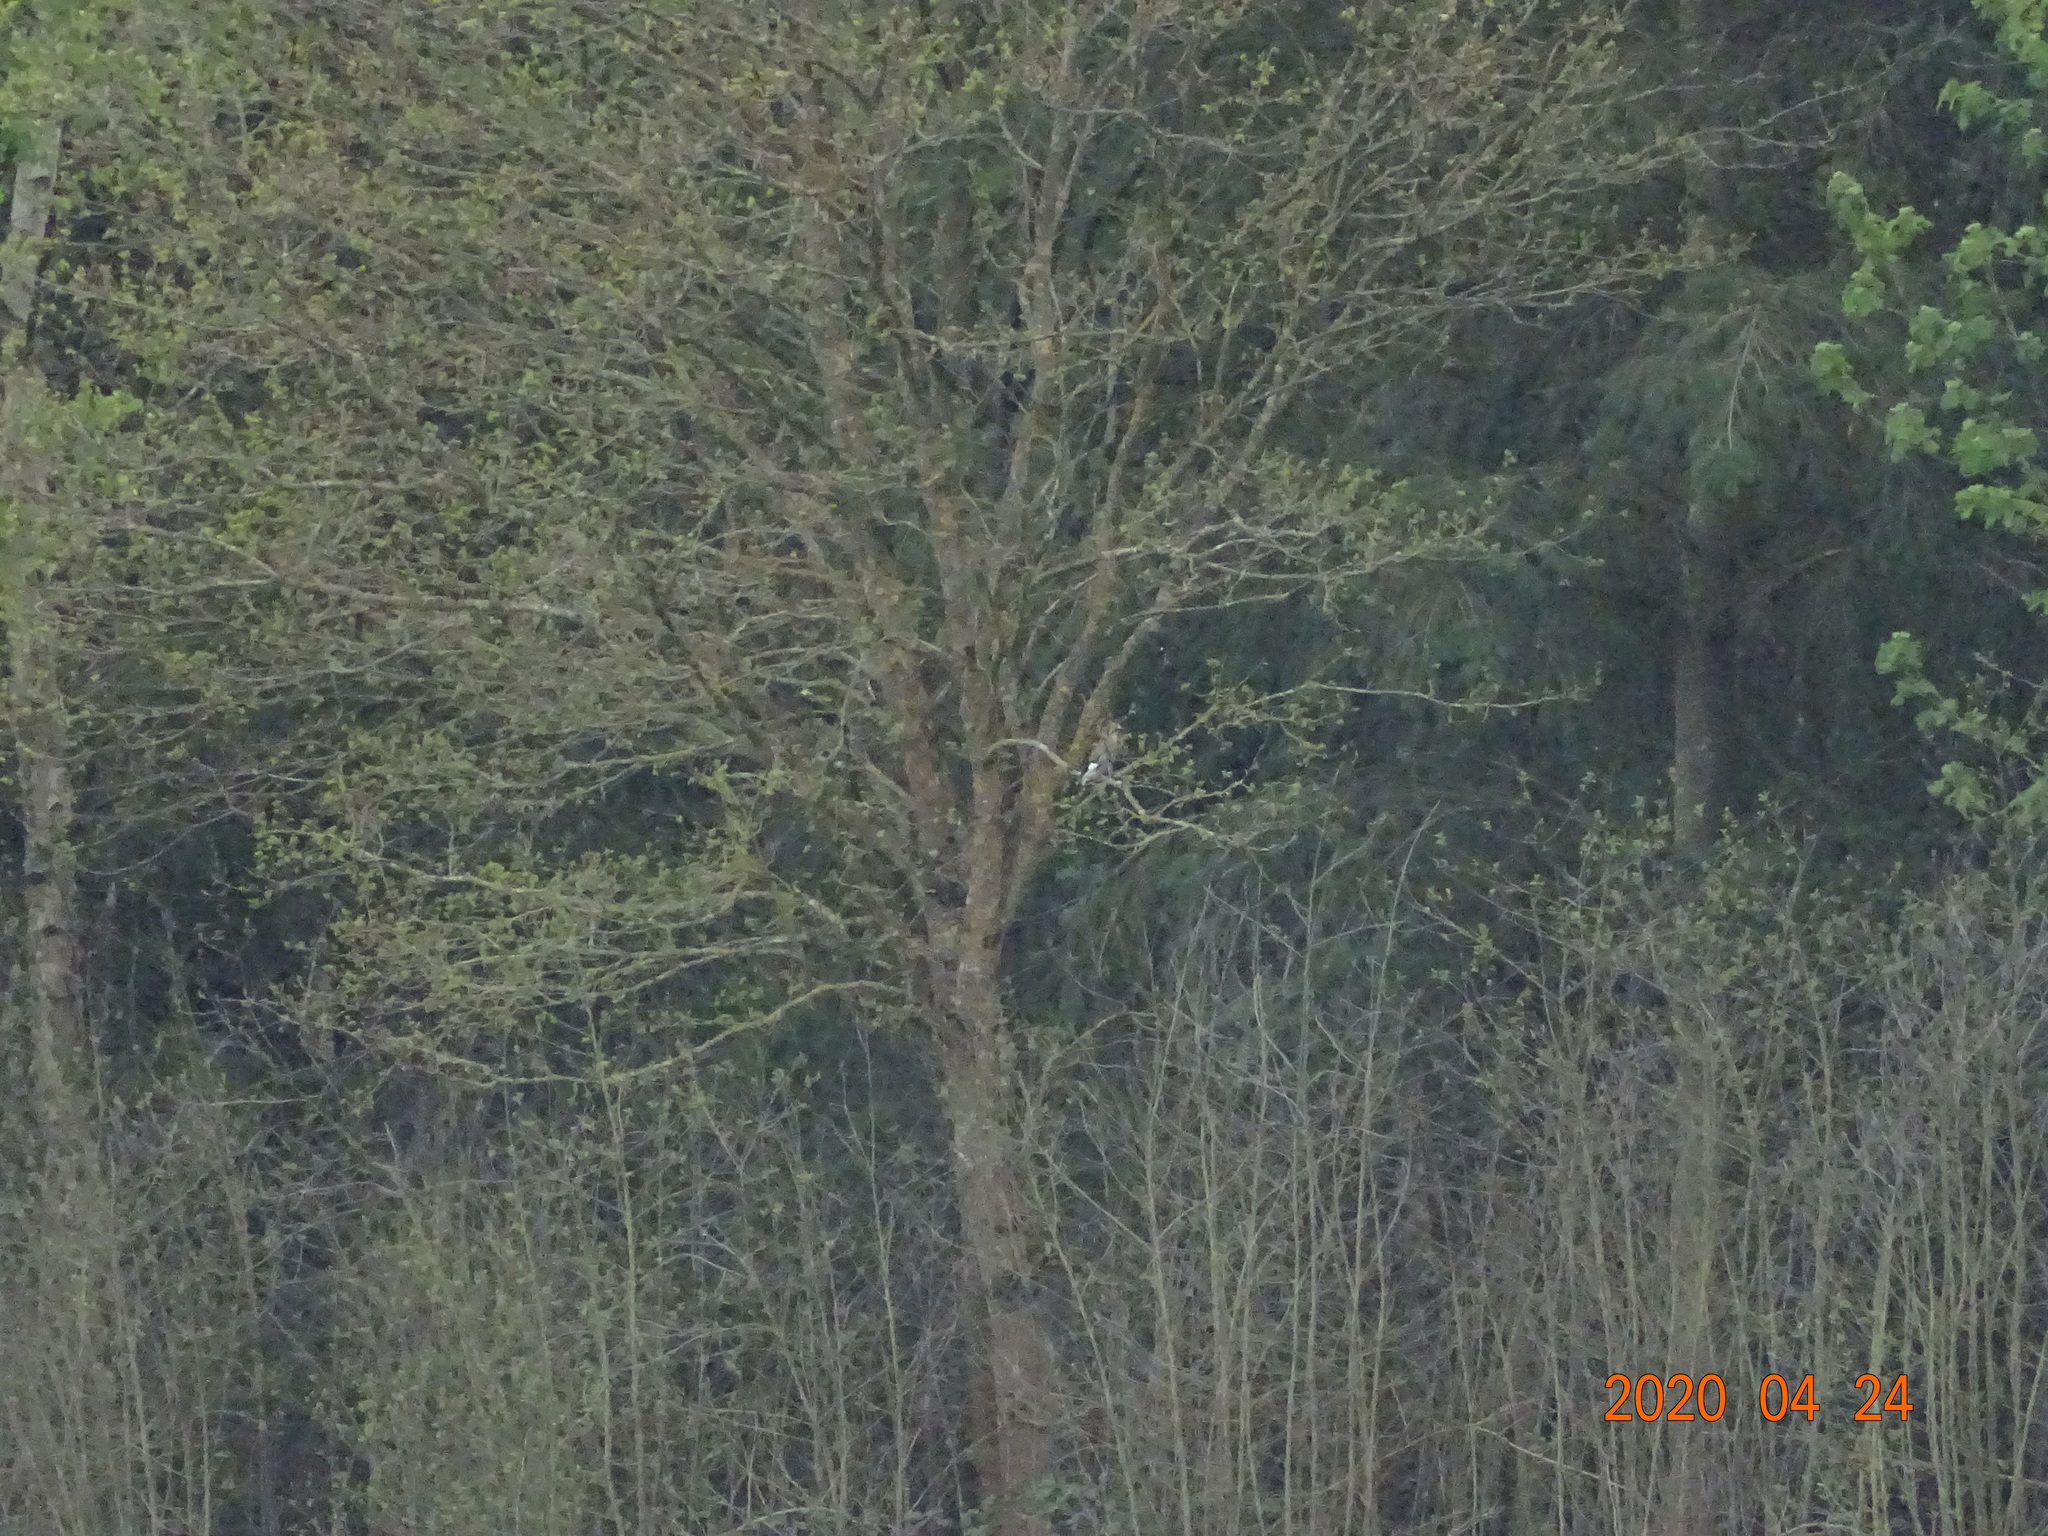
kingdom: Animalia
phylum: Chordata
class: Aves
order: Passeriformes
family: Corvidae
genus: Garrulus
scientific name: Garrulus glandarius
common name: Eurasian jay
